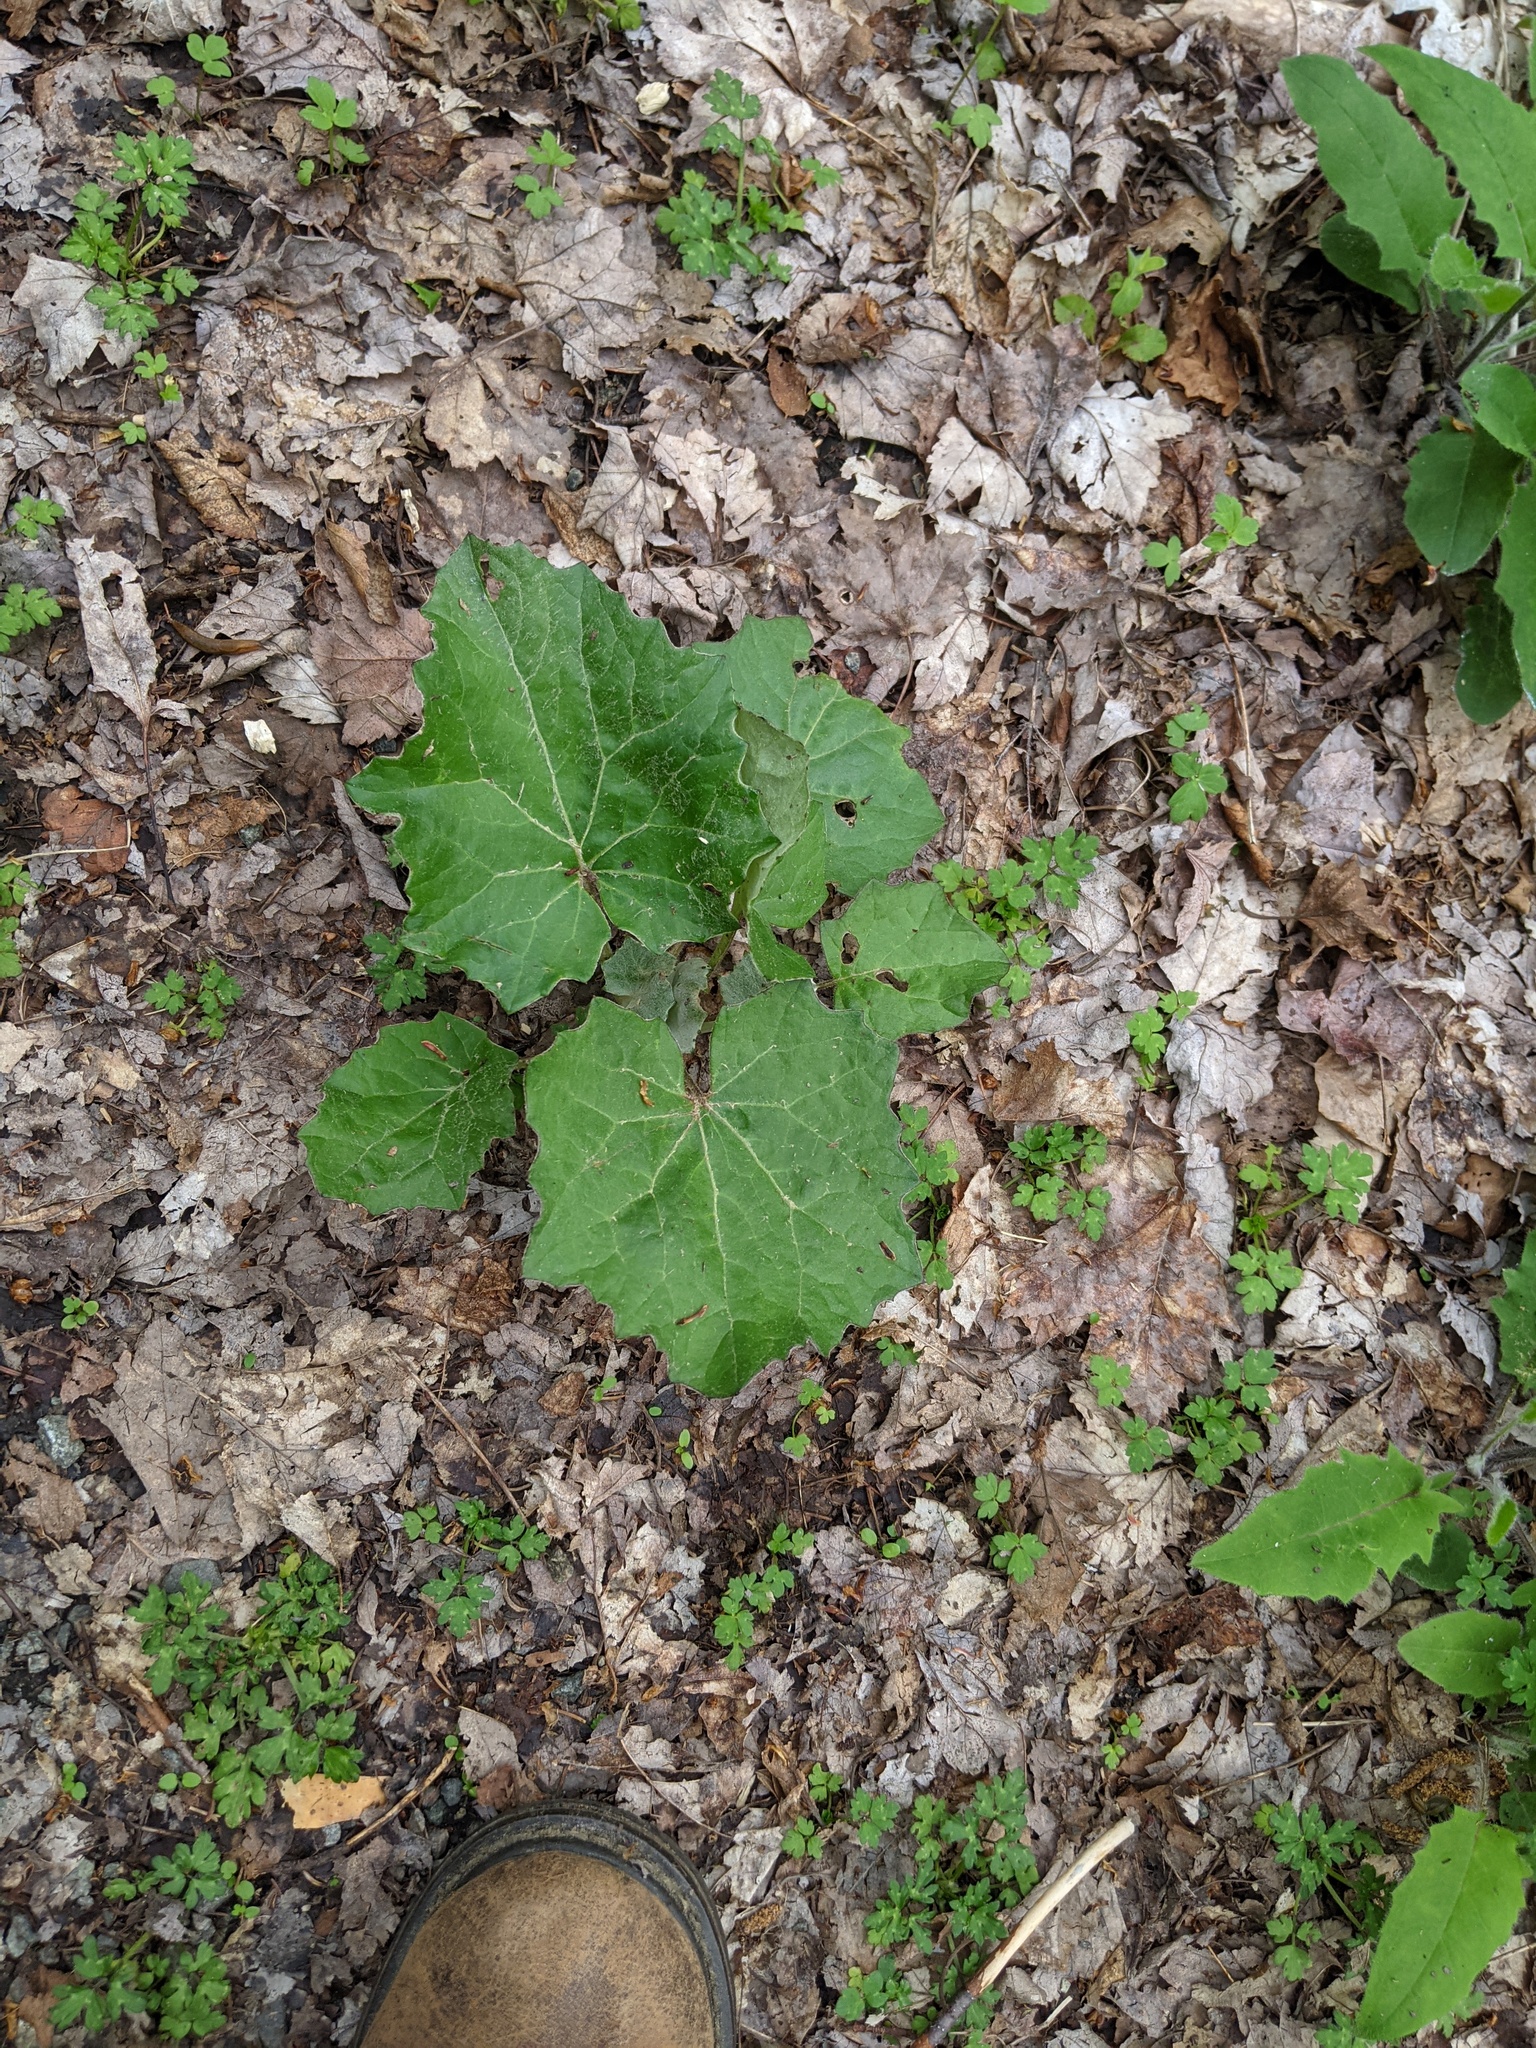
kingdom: Plantae
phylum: Tracheophyta
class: Magnoliopsida
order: Asterales
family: Asteraceae
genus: Tussilago
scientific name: Tussilago farfara
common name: Coltsfoot
